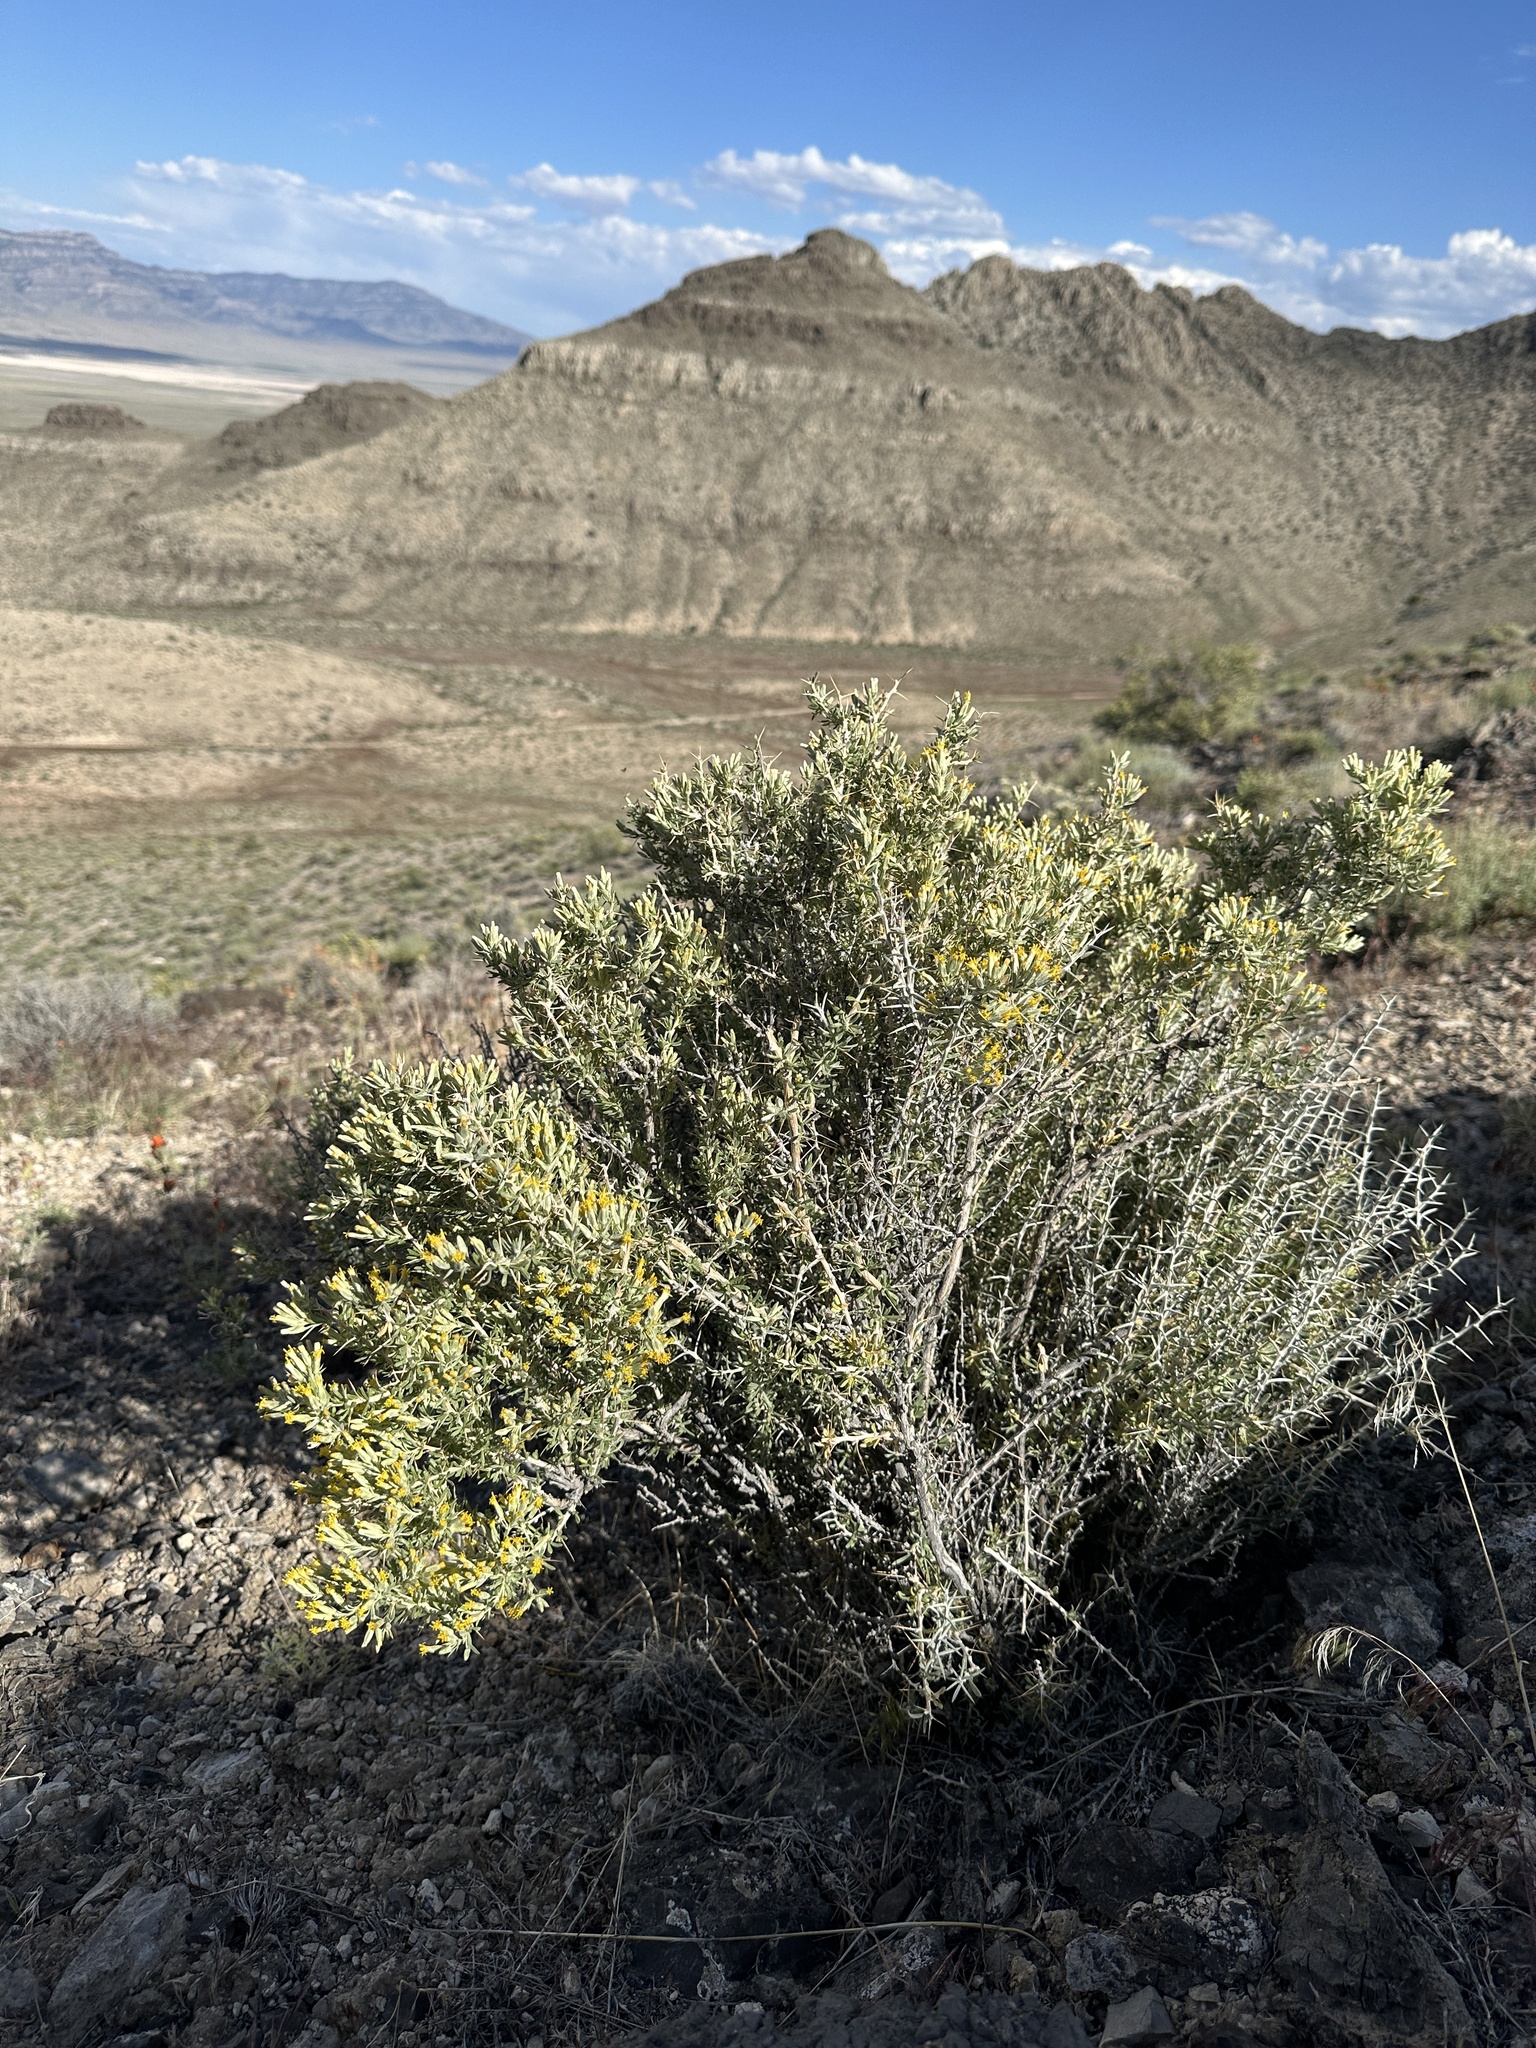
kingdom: Plantae
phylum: Tracheophyta
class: Magnoliopsida
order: Asterales
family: Asteraceae
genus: Tetradymia
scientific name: Tetradymia nuttallii
